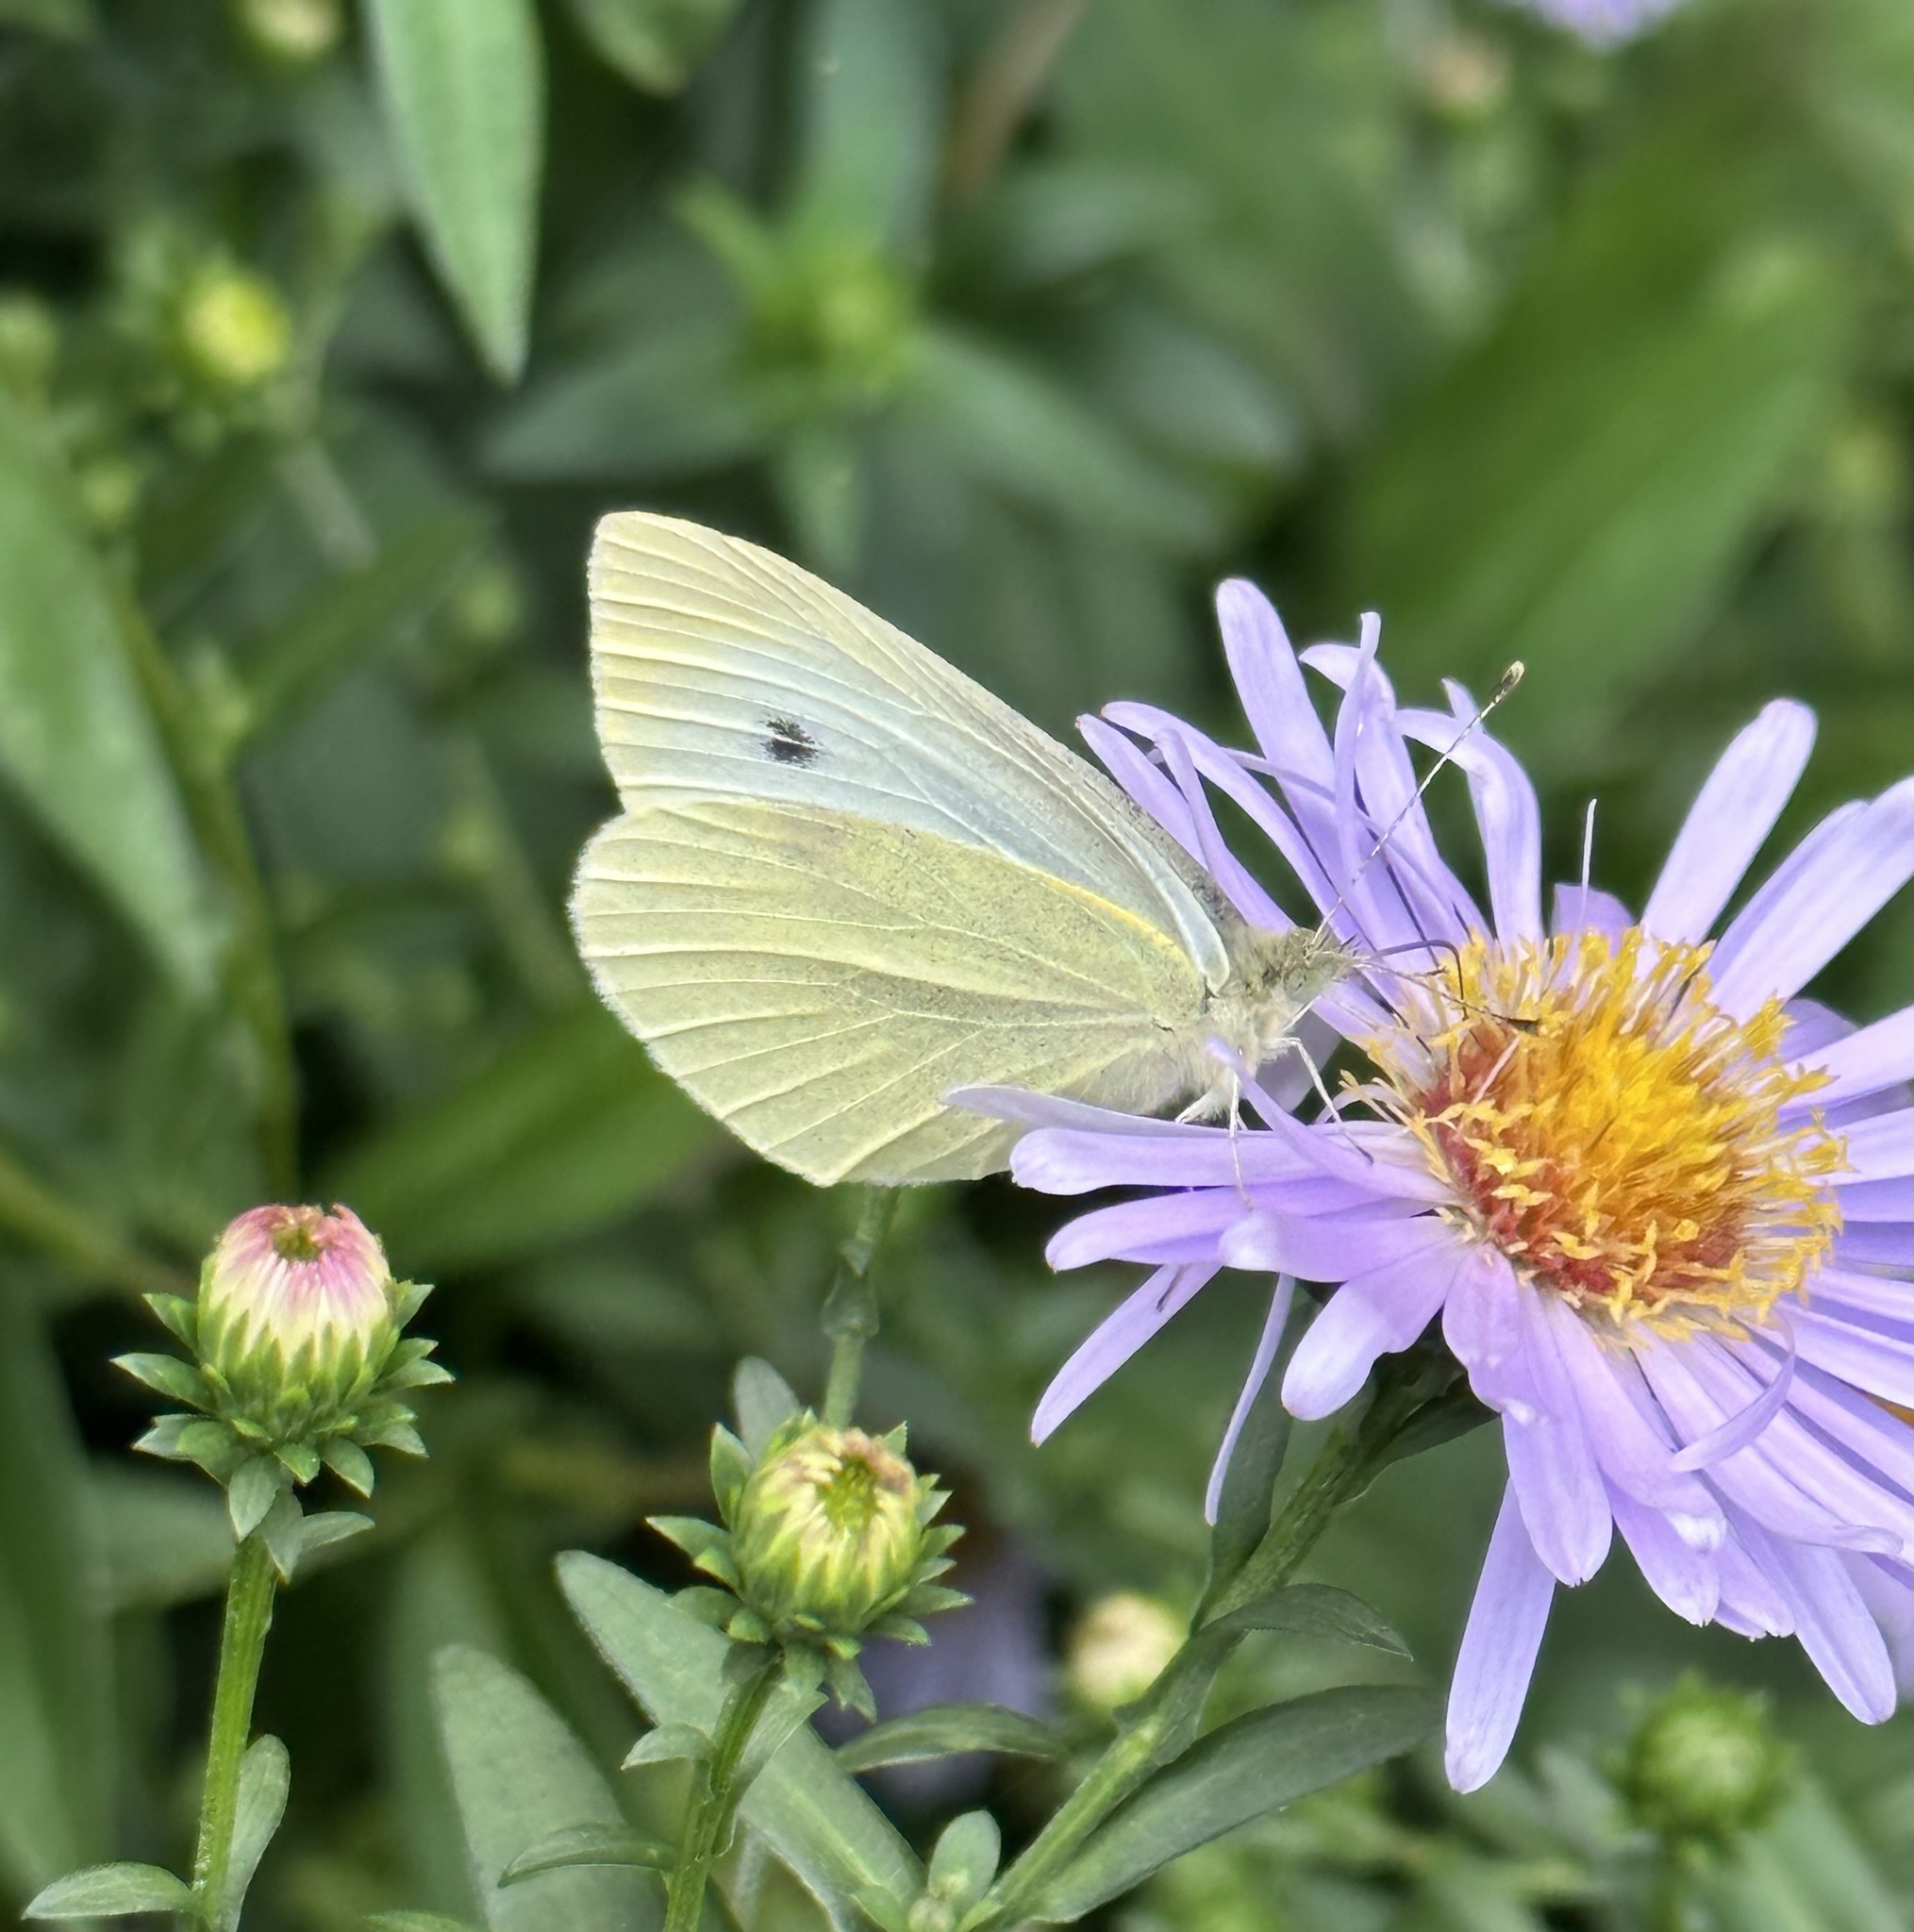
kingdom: Animalia
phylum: Arthropoda
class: Insecta
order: Lepidoptera
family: Pieridae
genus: Pieris
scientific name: Pieris rapae
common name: Small white
